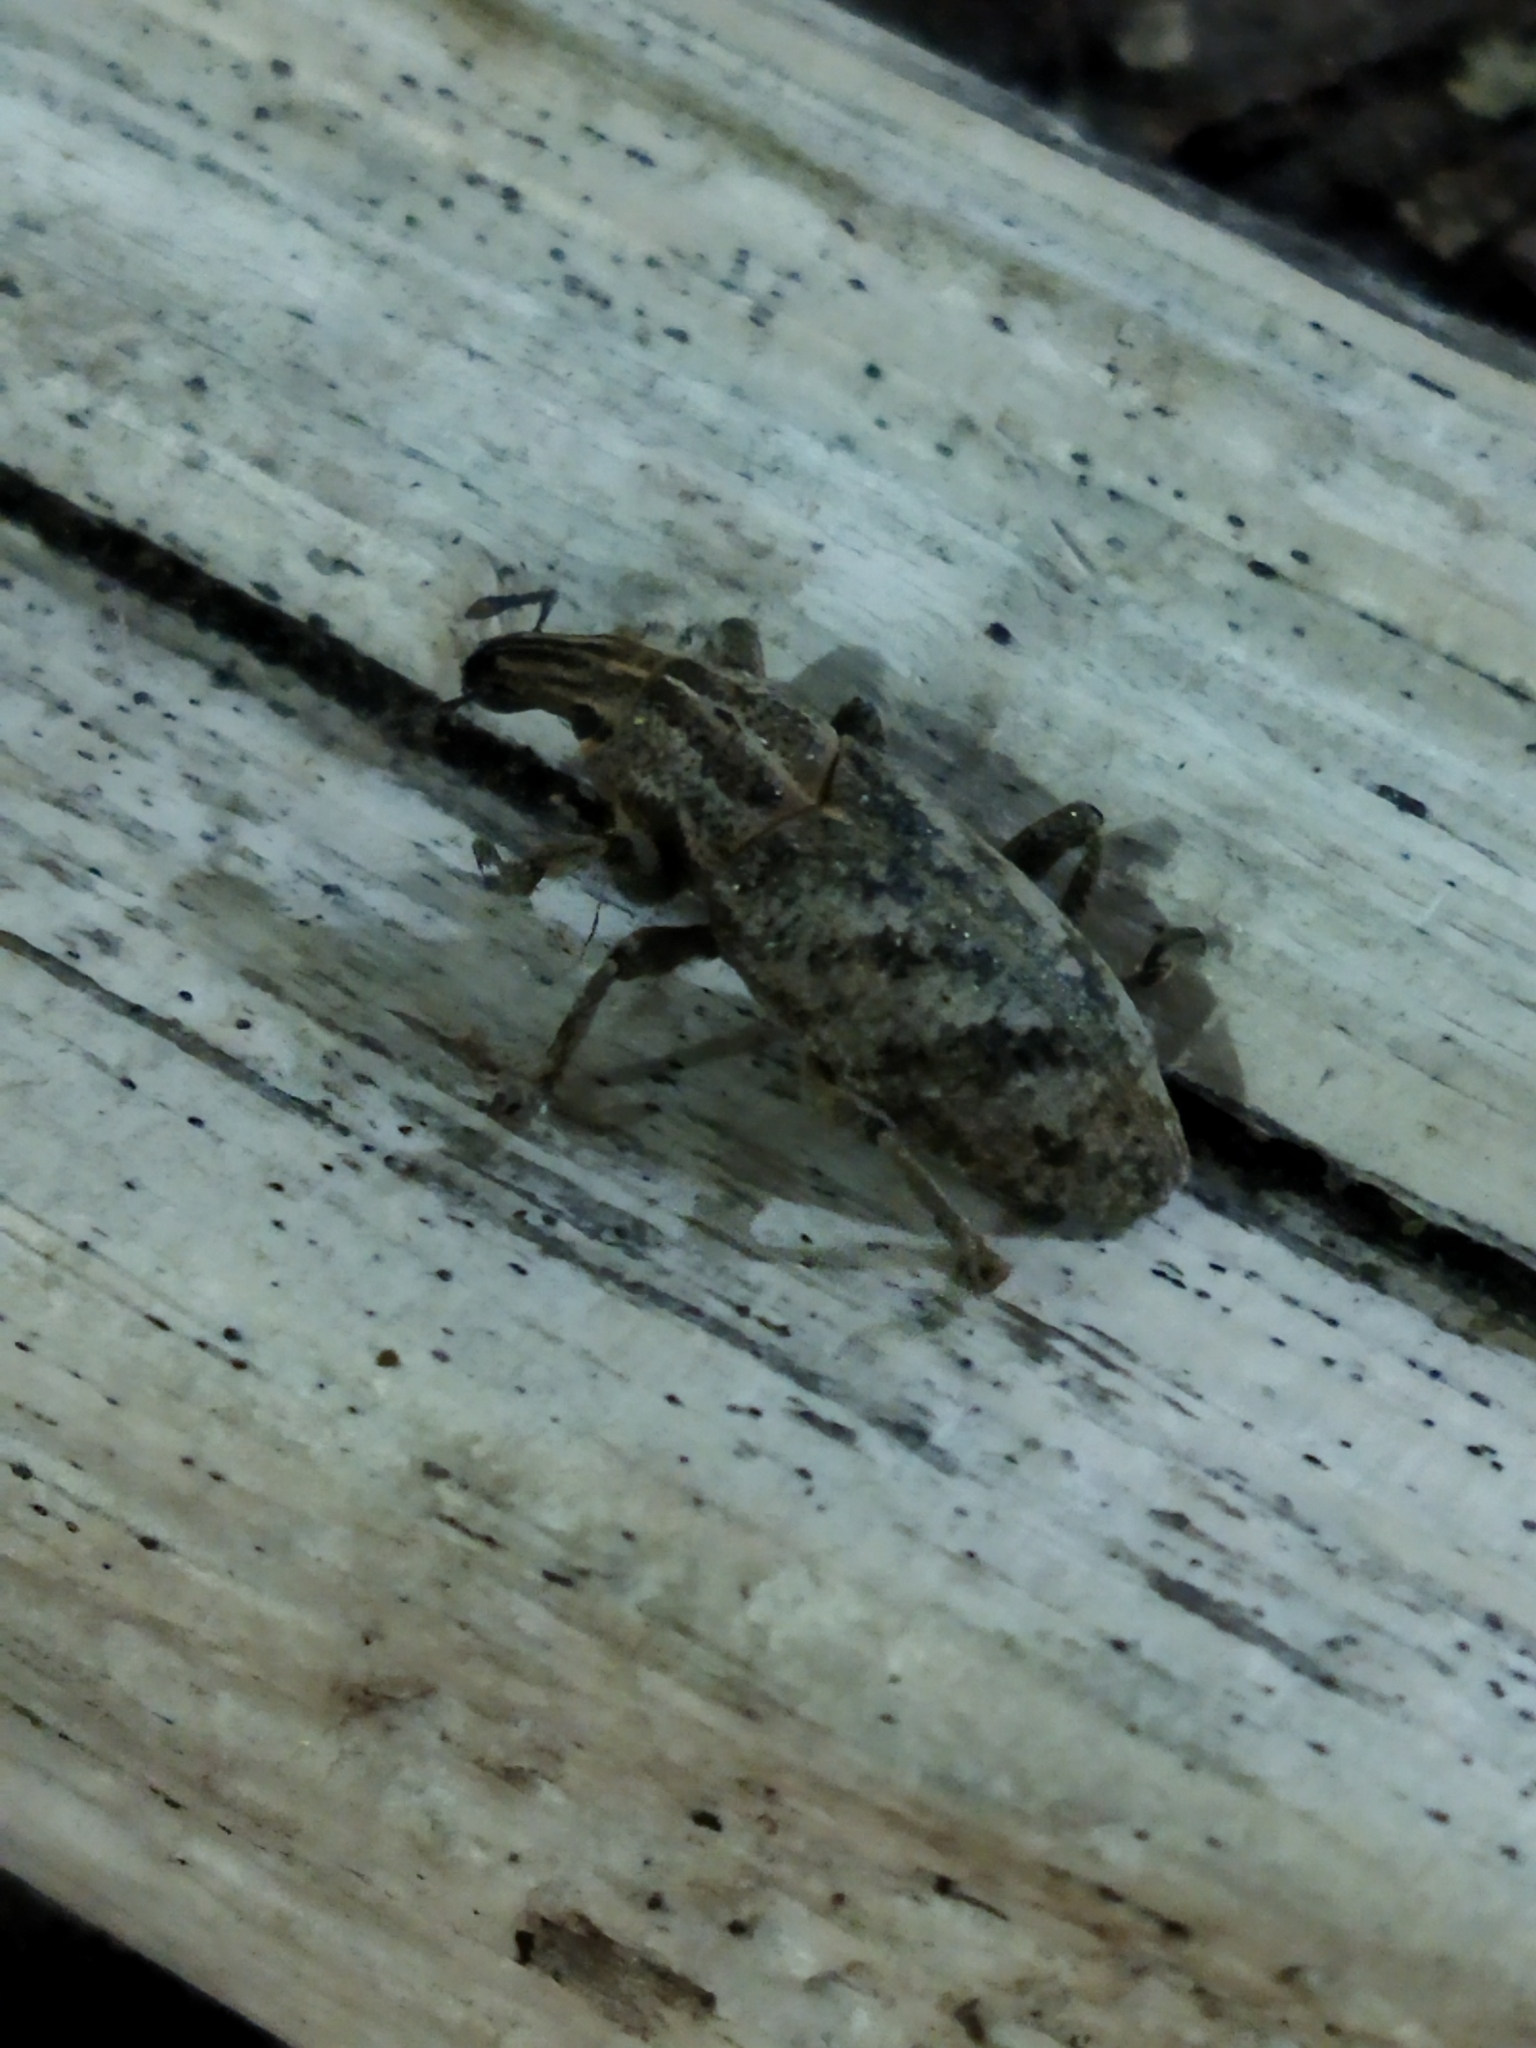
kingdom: Animalia
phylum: Arthropoda
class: Insecta
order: Coleoptera
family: Curculionidae
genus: Cleonis
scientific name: Cleonis pigra
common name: Large thistle weevil
